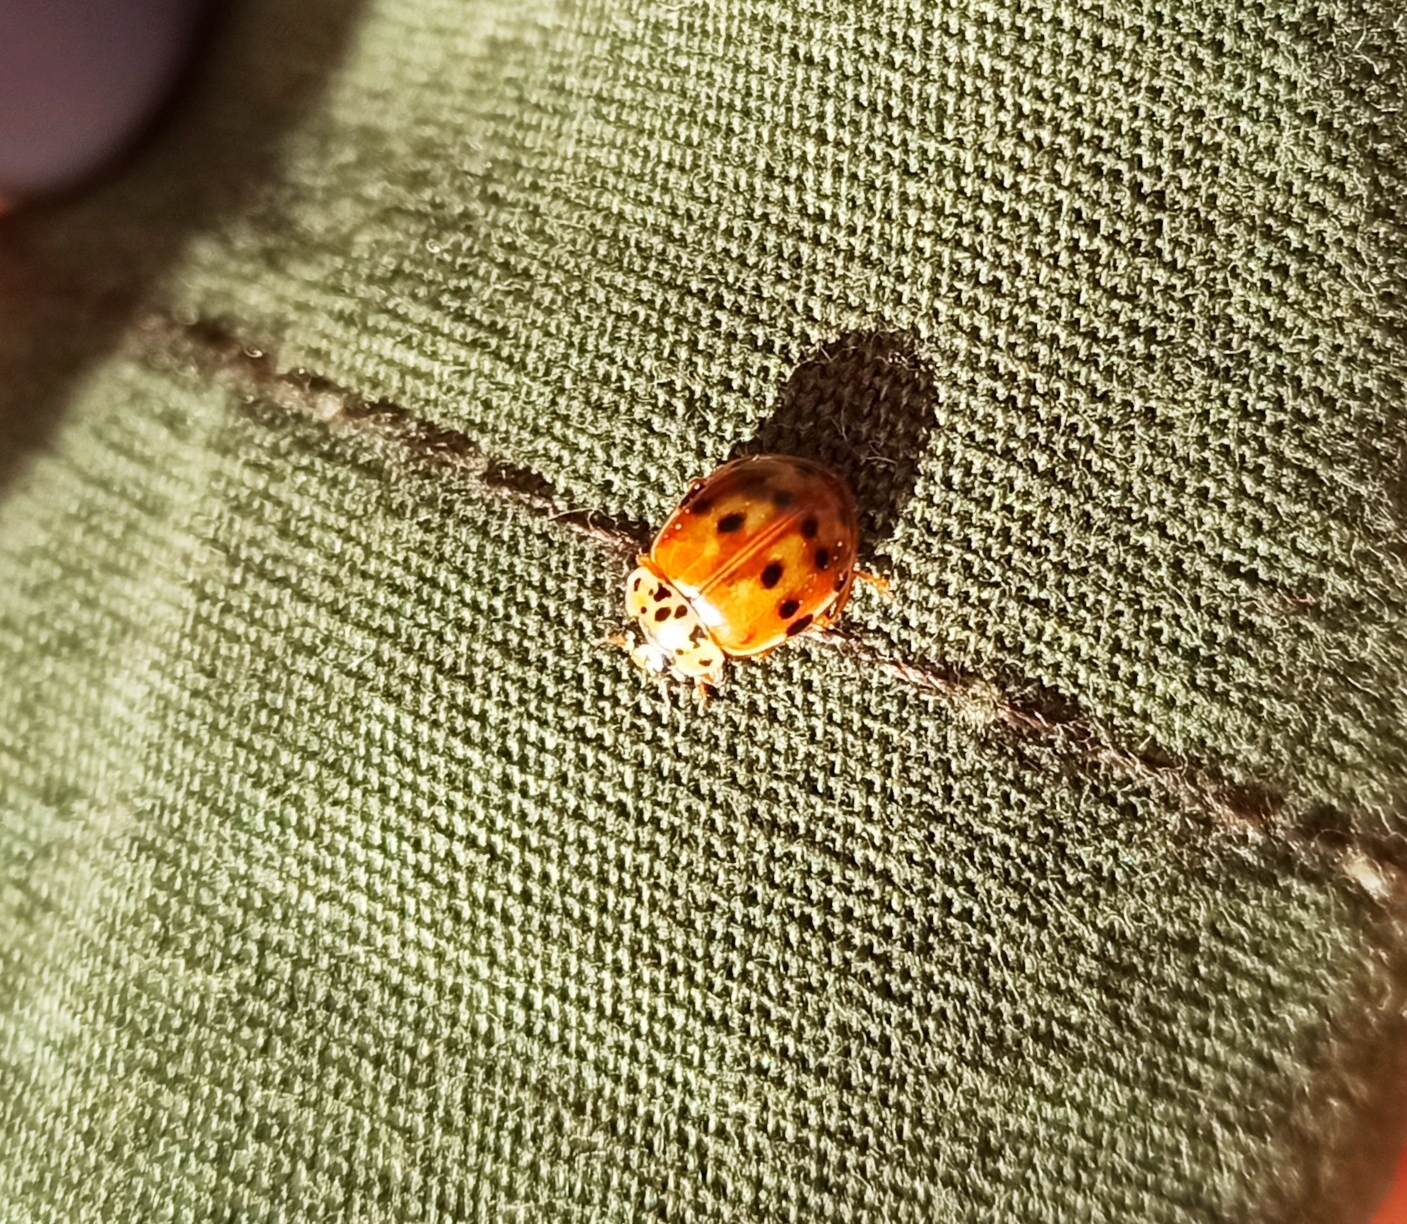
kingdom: Animalia
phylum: Arthropoda
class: Insecta
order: Coleoptera
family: Coccinellidae
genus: Harmonia
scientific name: Harmonia quadripunctata
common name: Cream-streaked ladybird
